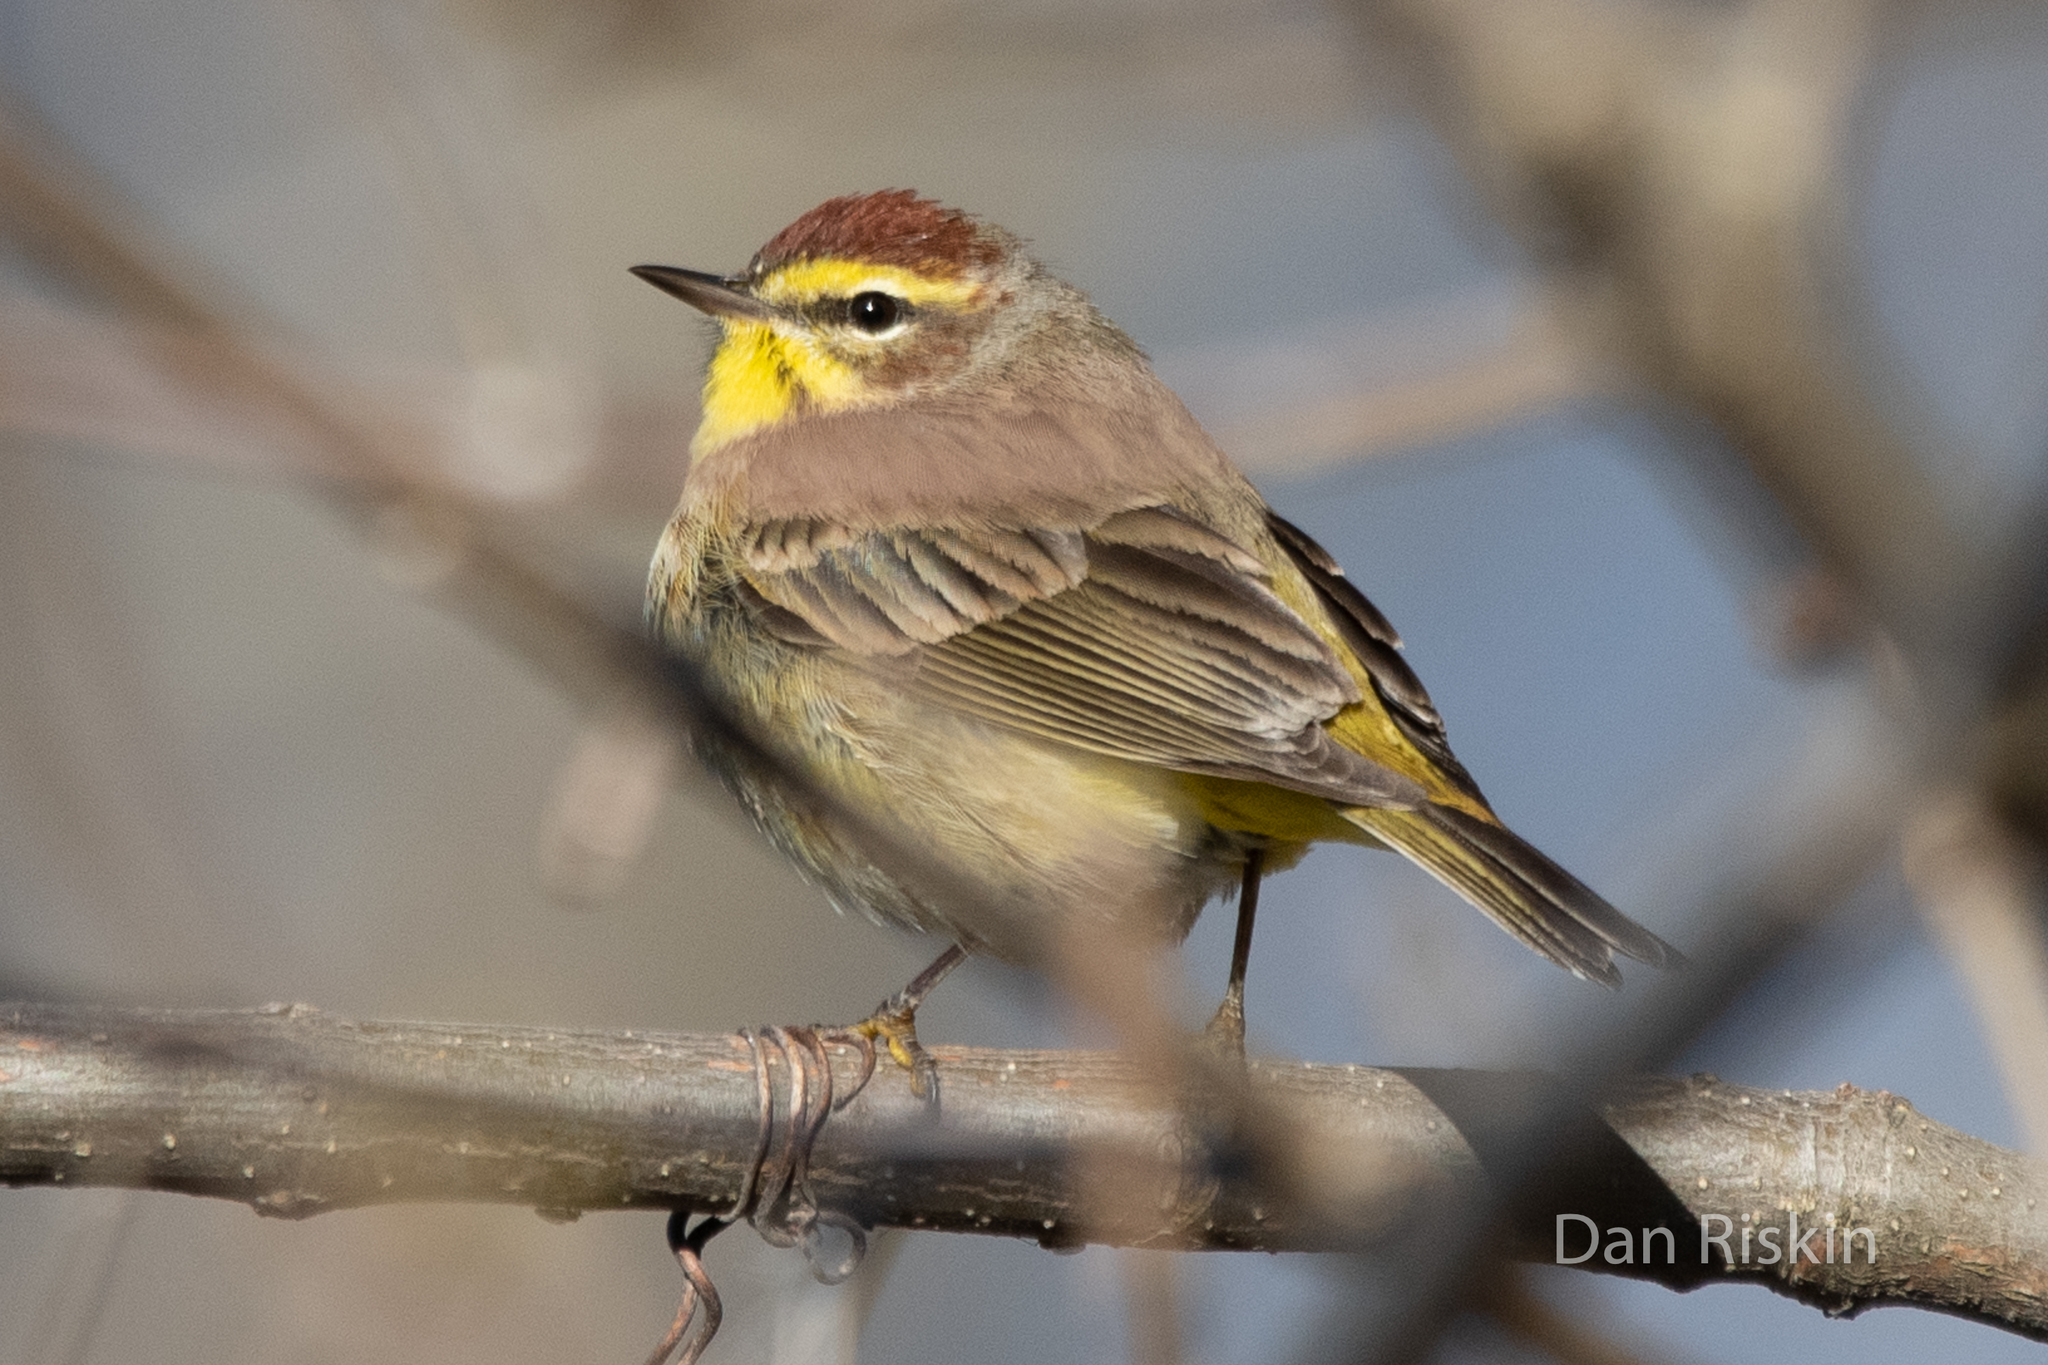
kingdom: Animalia
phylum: Chordata
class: Aves
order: Passeriformes
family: Parulidae
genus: Setophaga
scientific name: Setophaga palmarum
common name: Palm warbler
